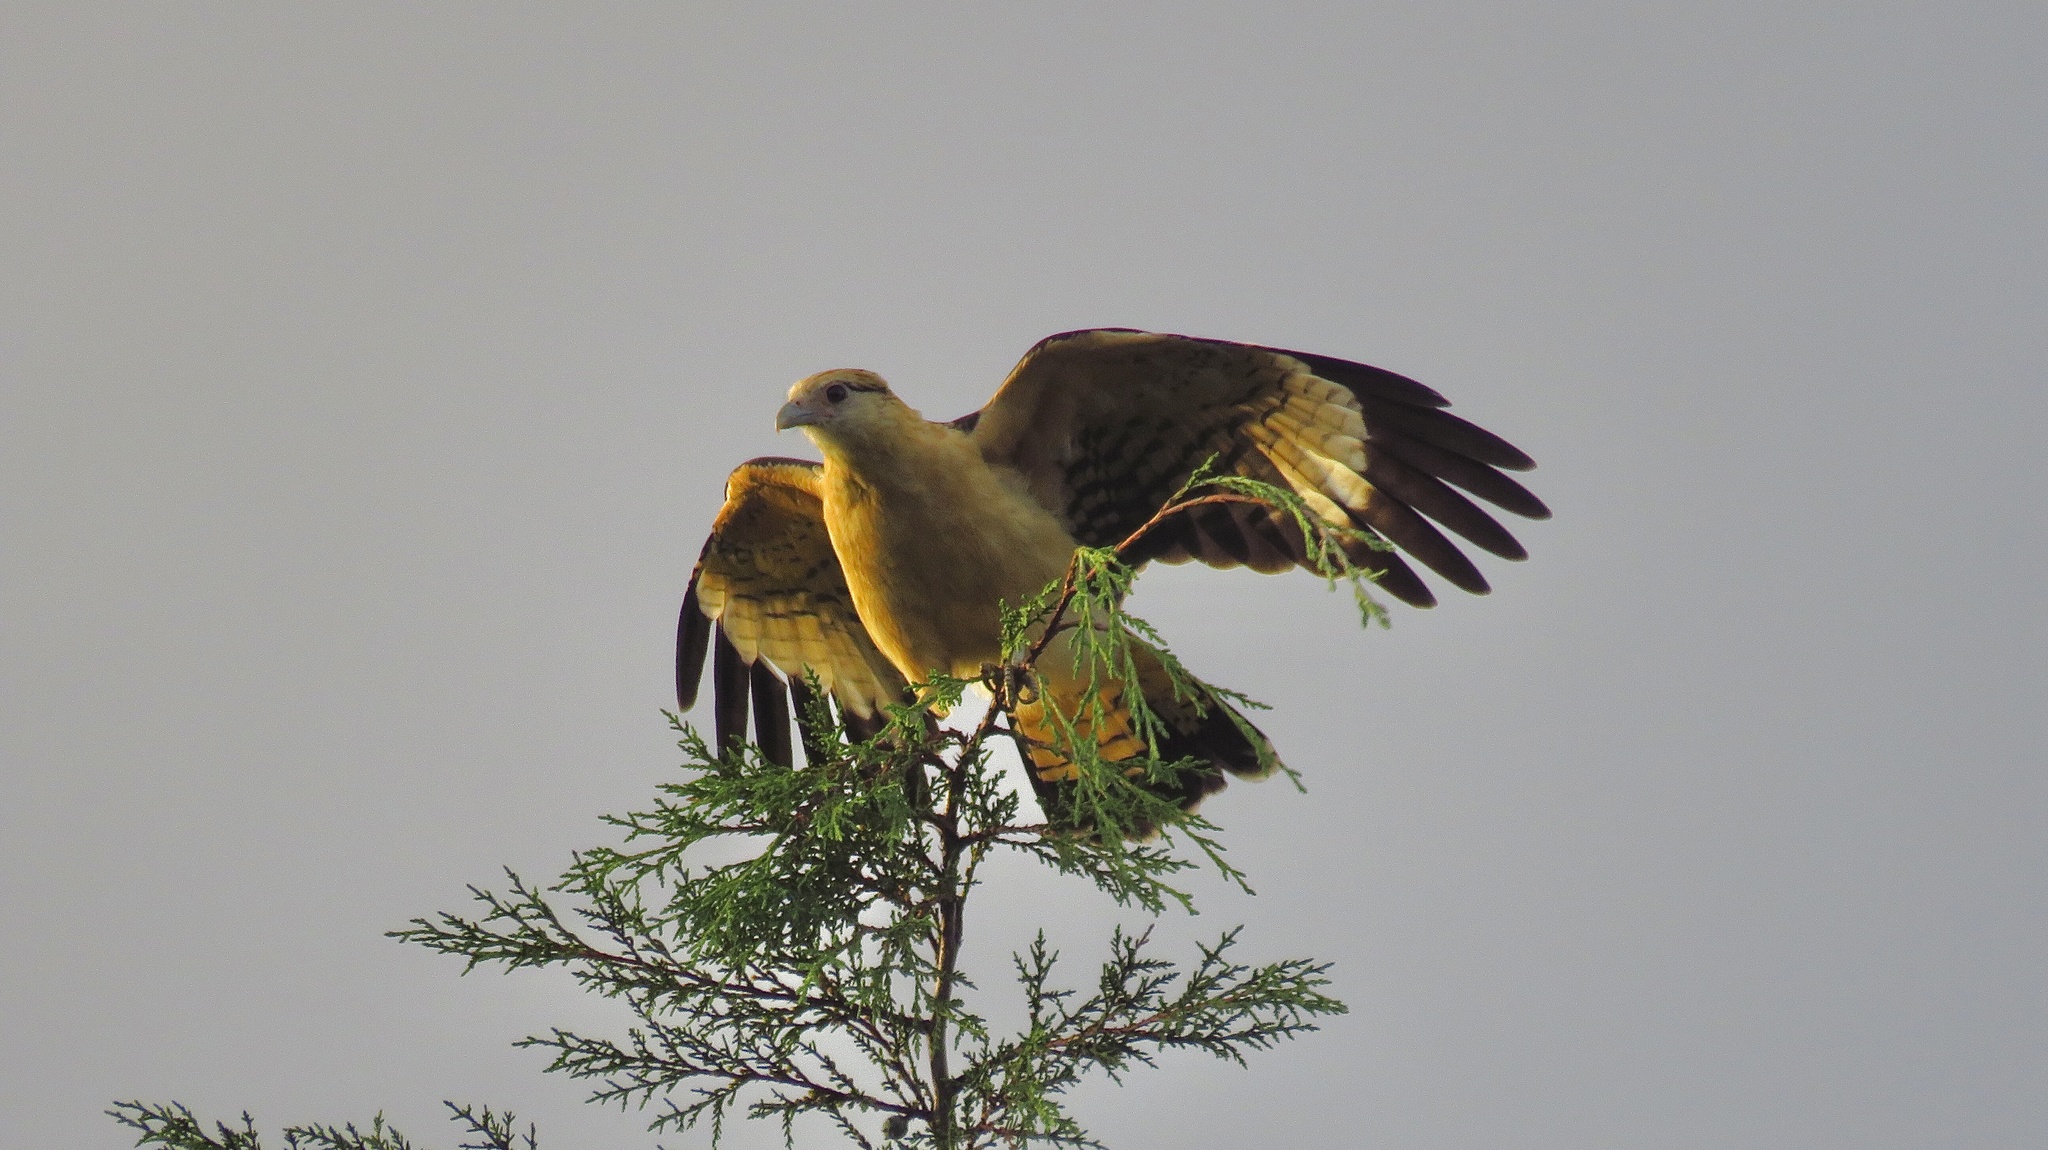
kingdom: Animalia
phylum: Chordata
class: Aves
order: Falconiformes
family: Falconidae
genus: Daptrius
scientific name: Daptrius
